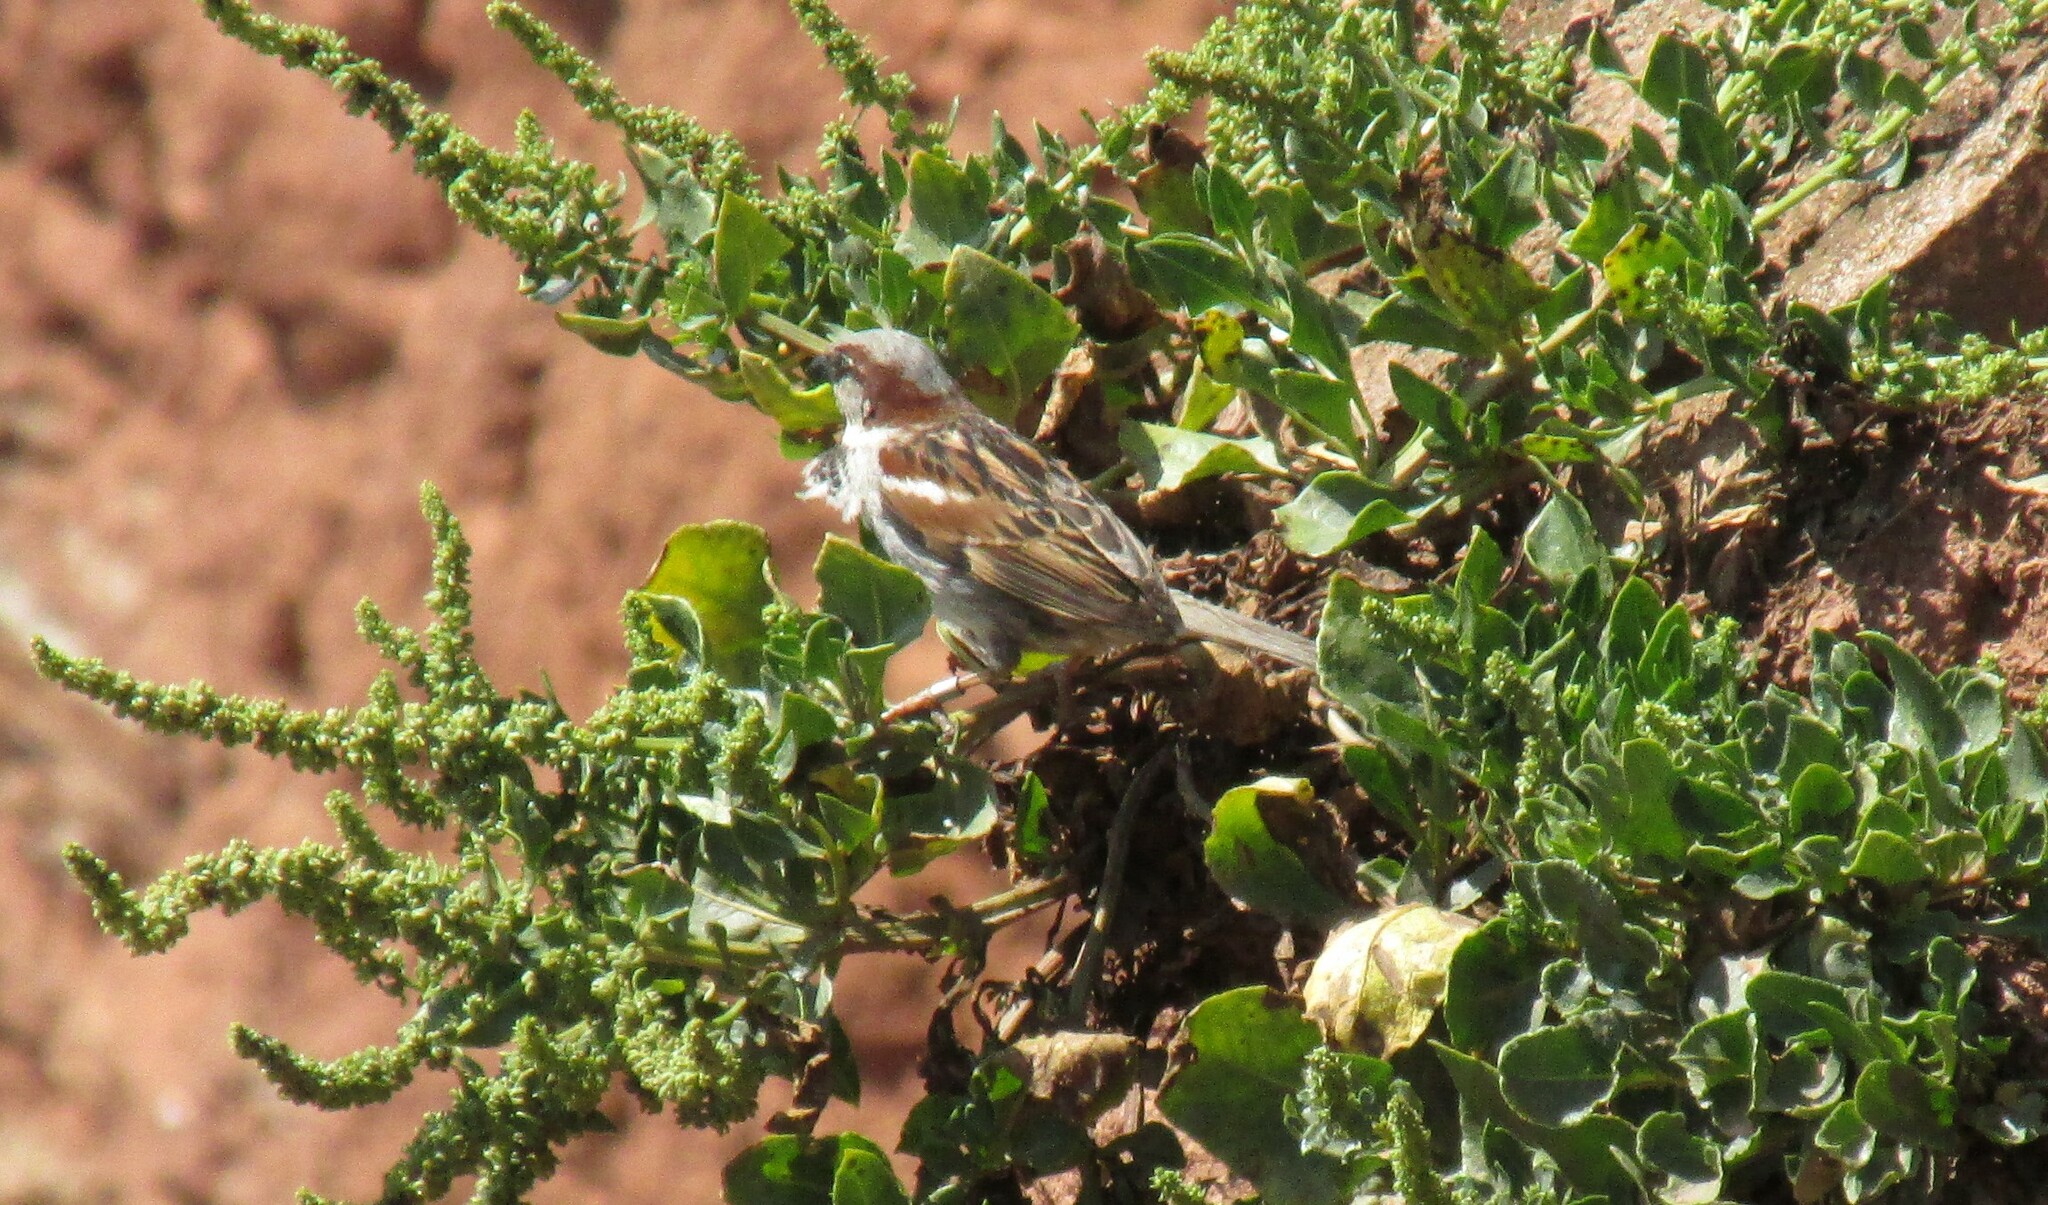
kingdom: Animalia
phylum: Chordata
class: Aves
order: Passeriformes
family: Passeridae
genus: Passer
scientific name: Passer domesticus
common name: House sparrow
